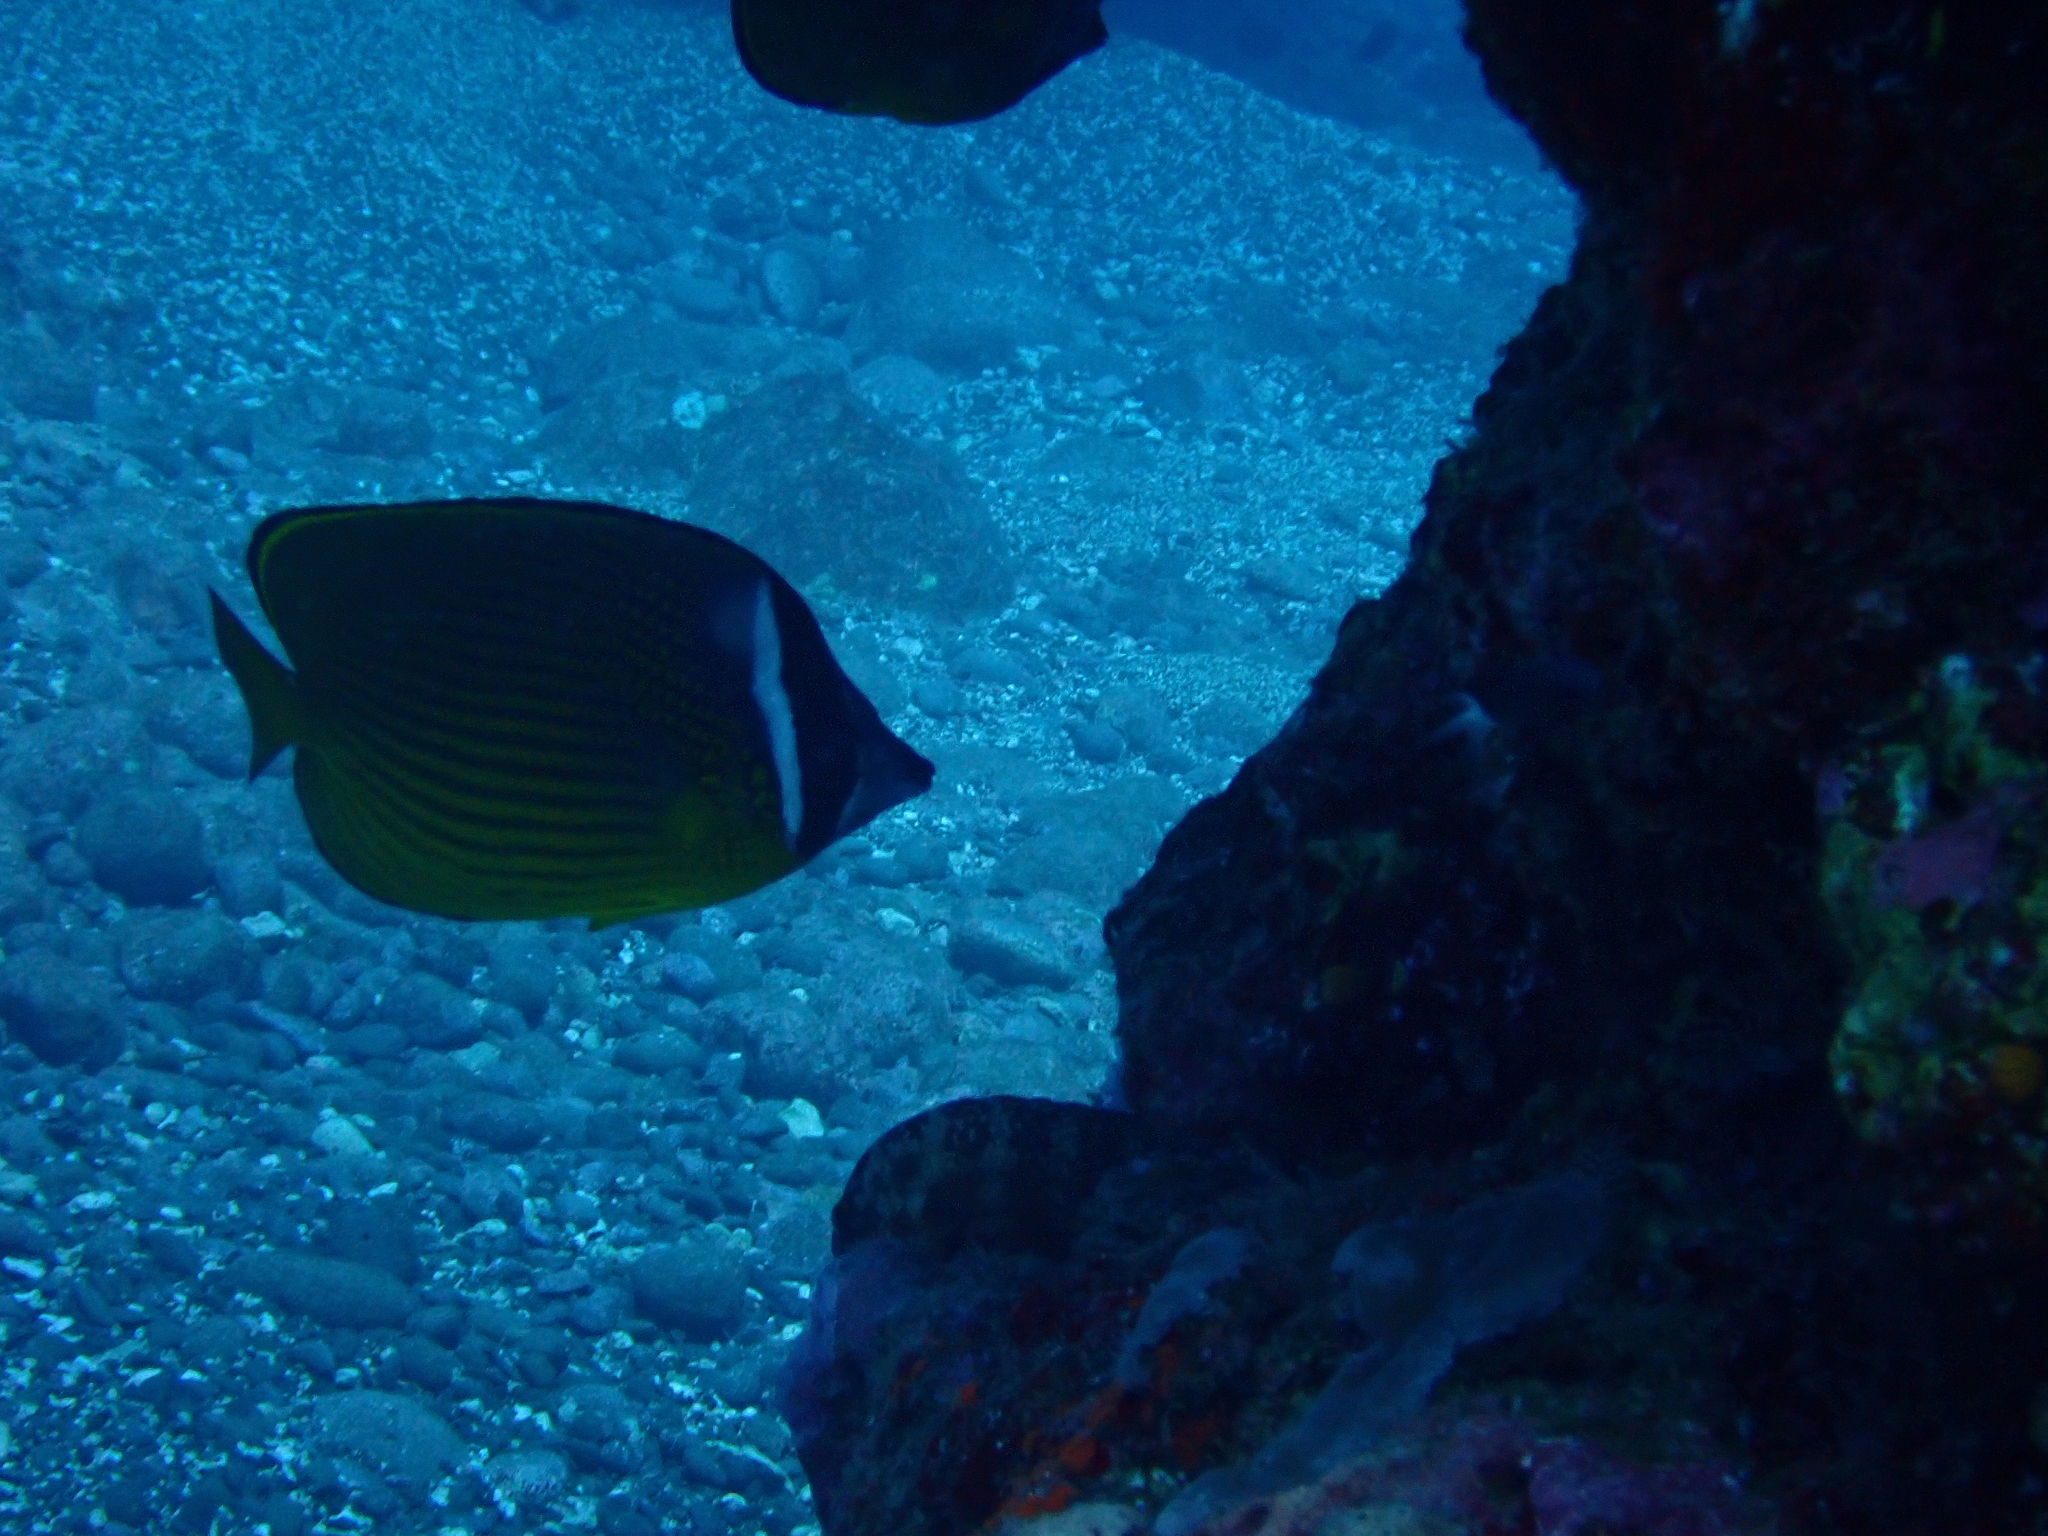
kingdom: Animalia
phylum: Chordata
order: Perciformes
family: Chaetodontidae
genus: Chaetodon
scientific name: Chaetodon auripes
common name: Oriental butterflyfish
